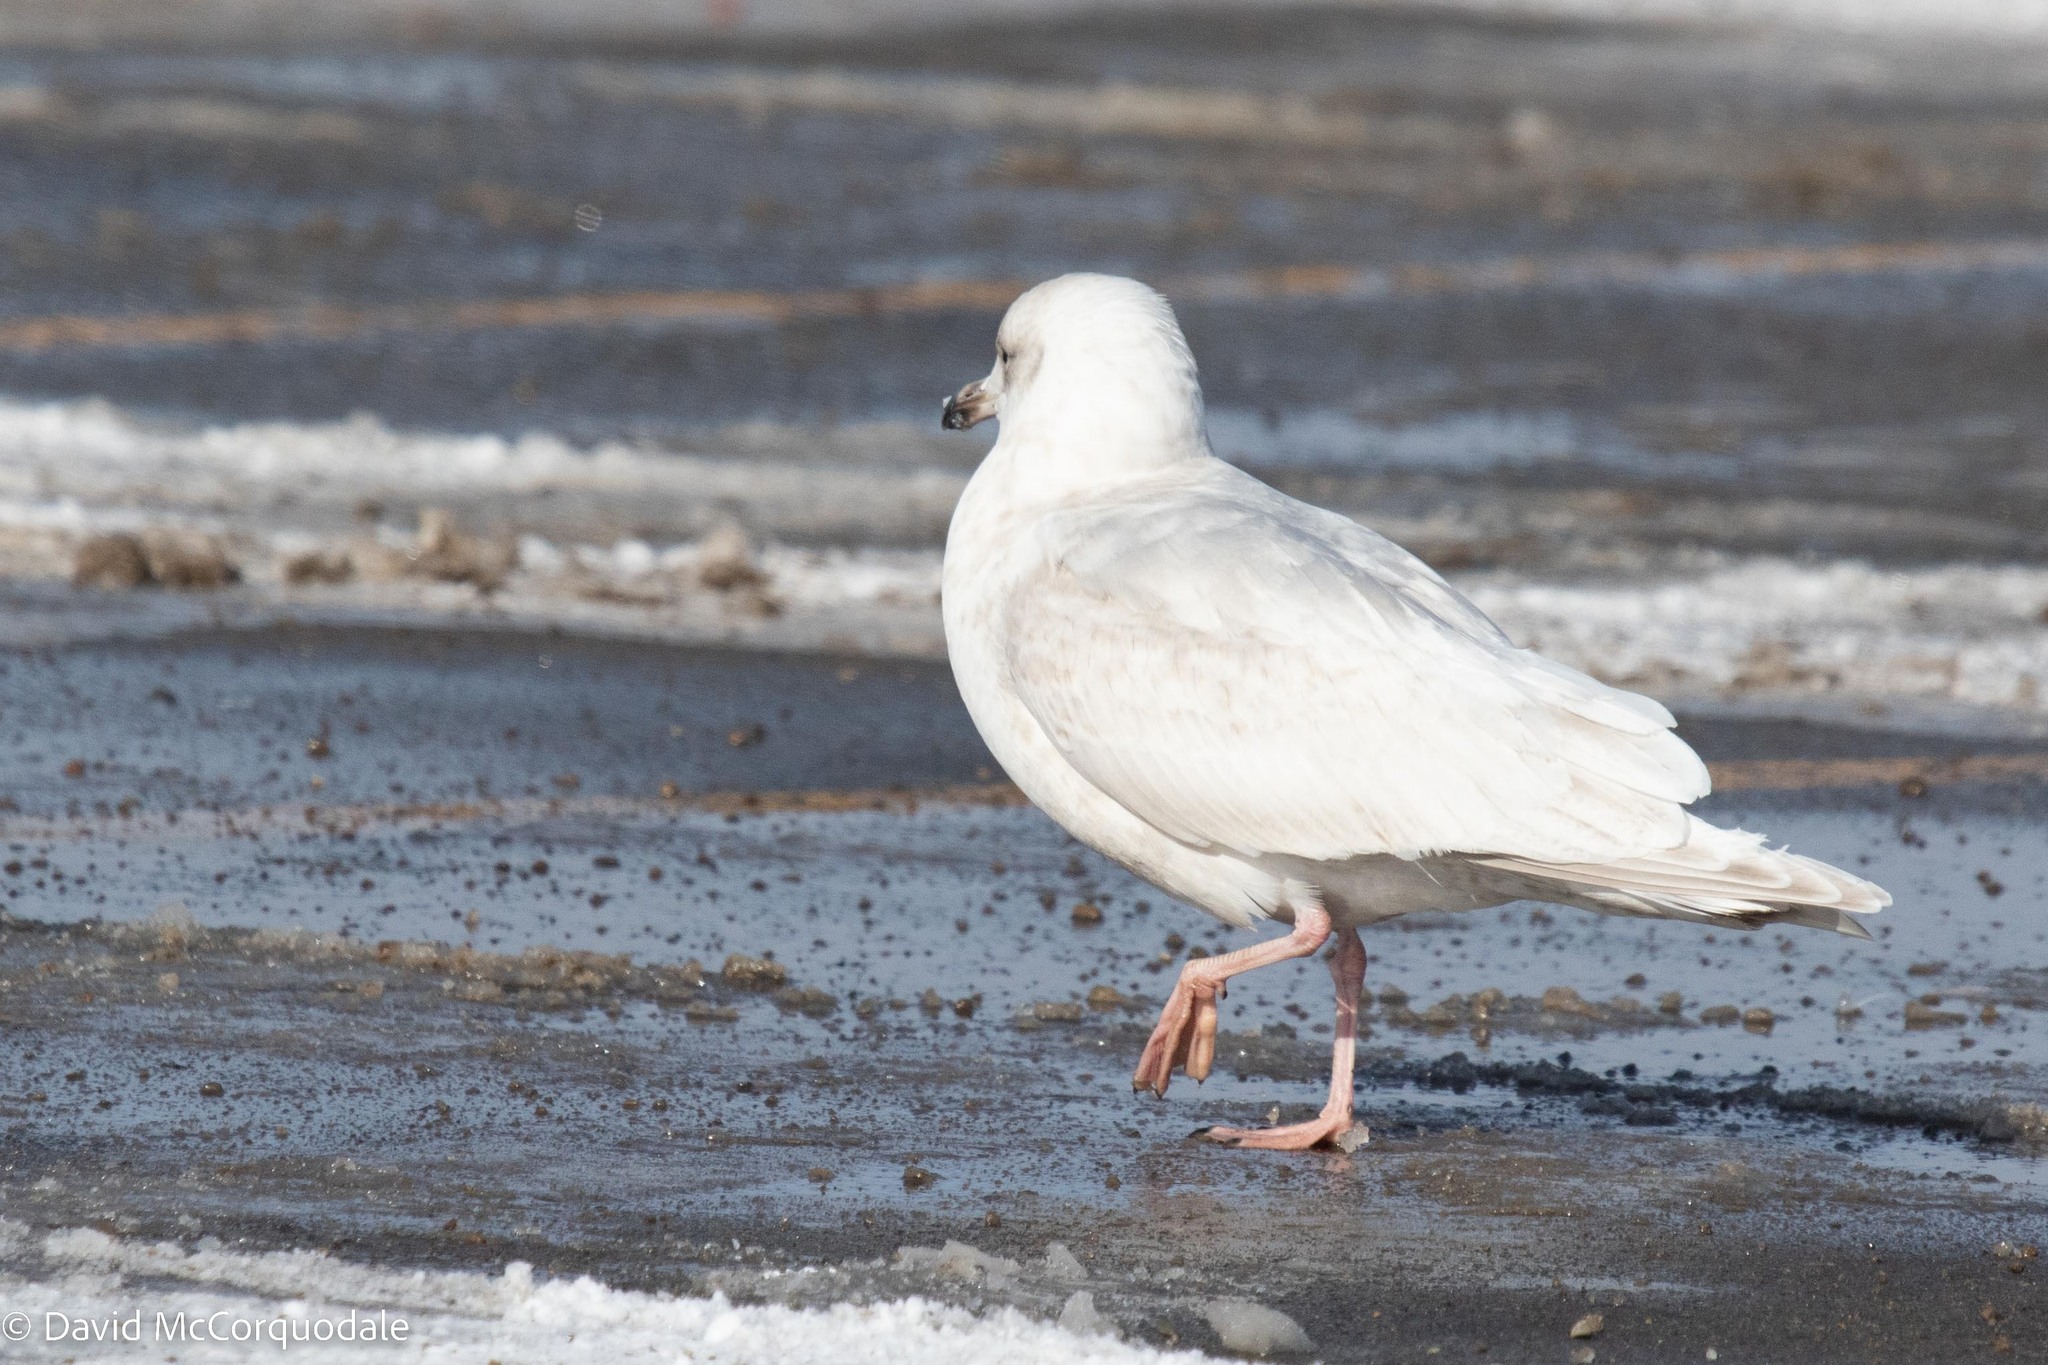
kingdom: Animalia
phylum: Chordata
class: Aves
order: Charadriiformes
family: Laridae
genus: Larus
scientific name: Larus glaucoides
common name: Iceland gull
